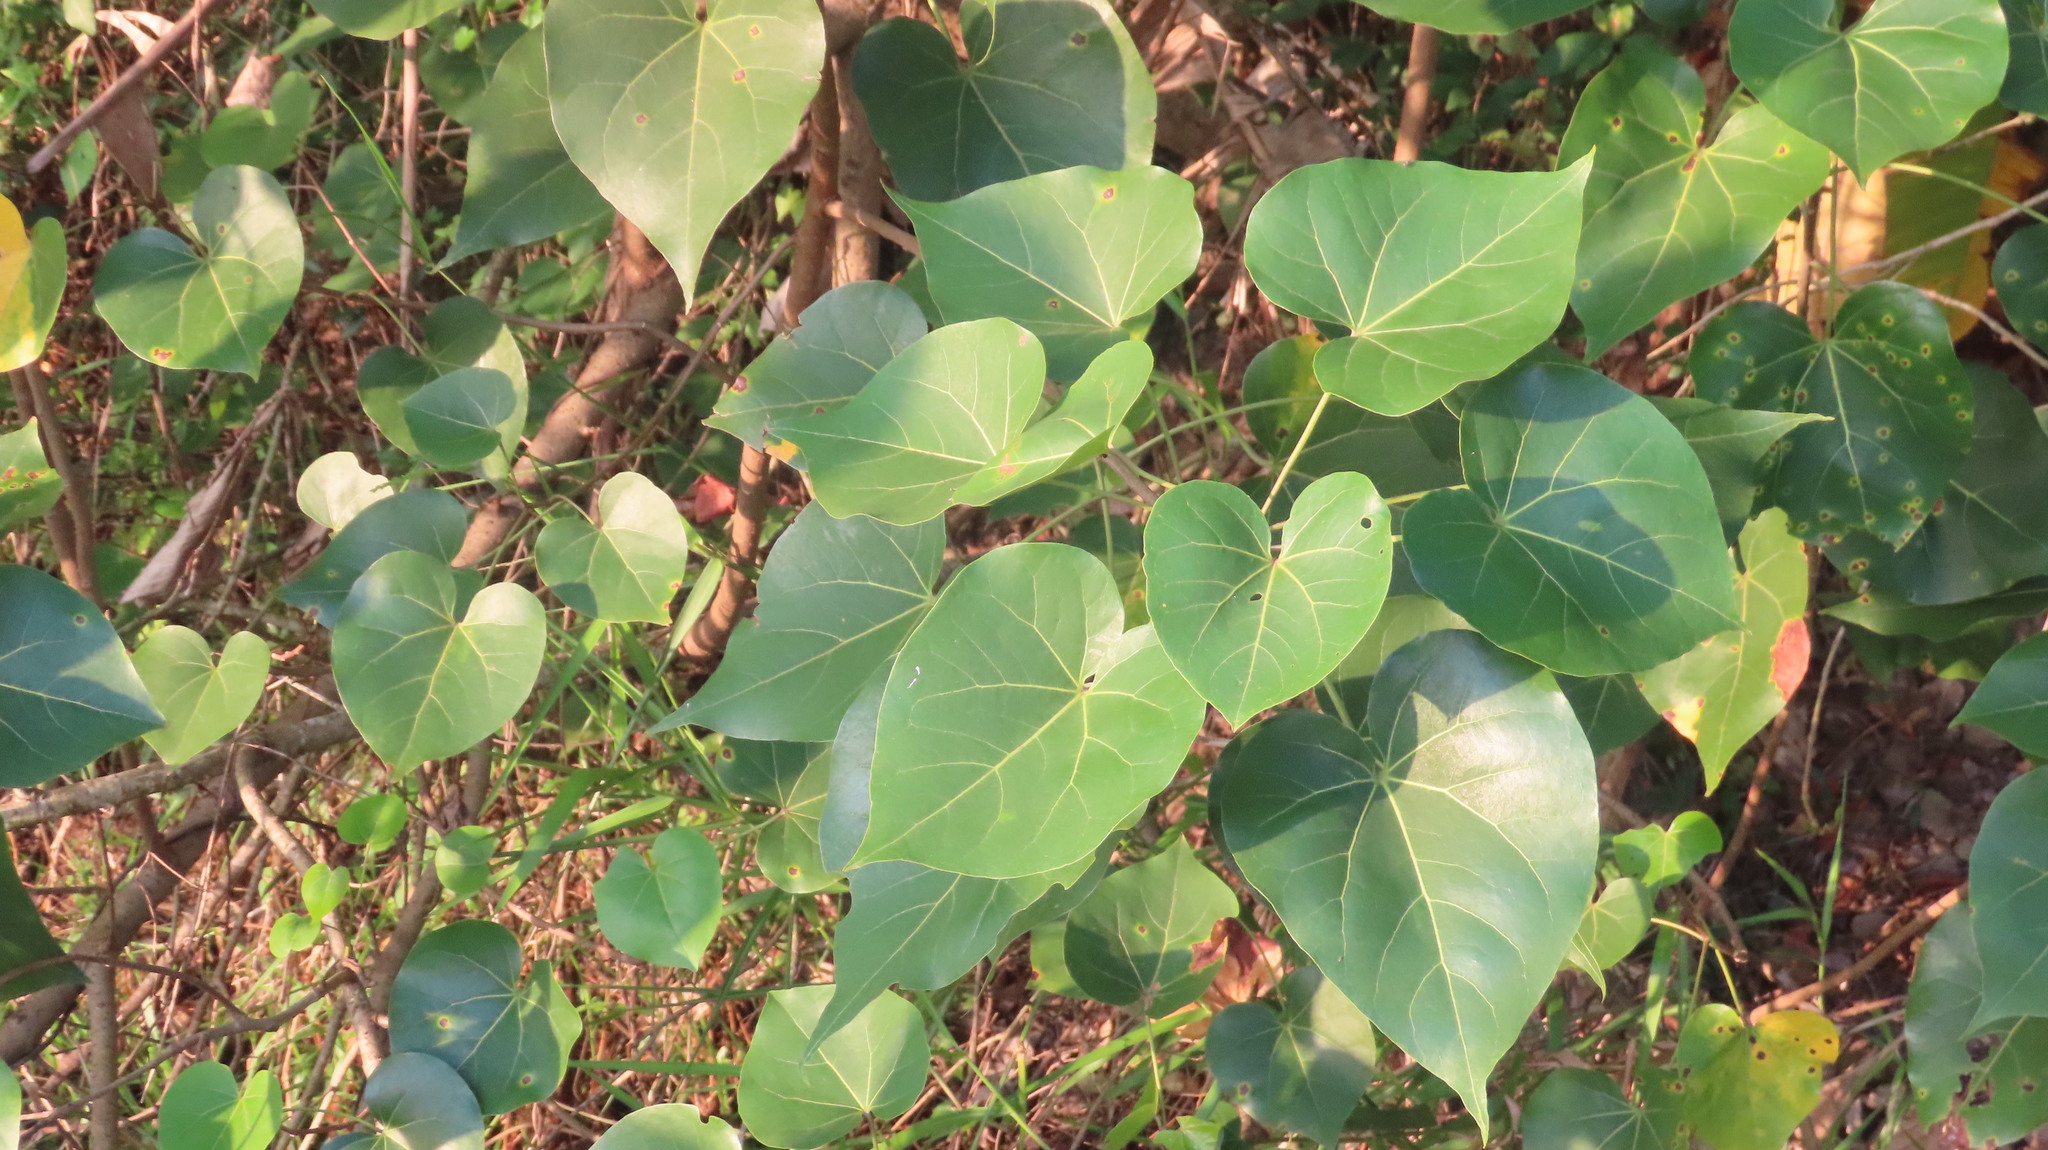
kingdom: Plantae
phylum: Tracheophyta
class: Magnoliopsida
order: Malvales
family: Malvaceae
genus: Thespesia
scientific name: Thespesia populnea
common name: Seaside mahoe
